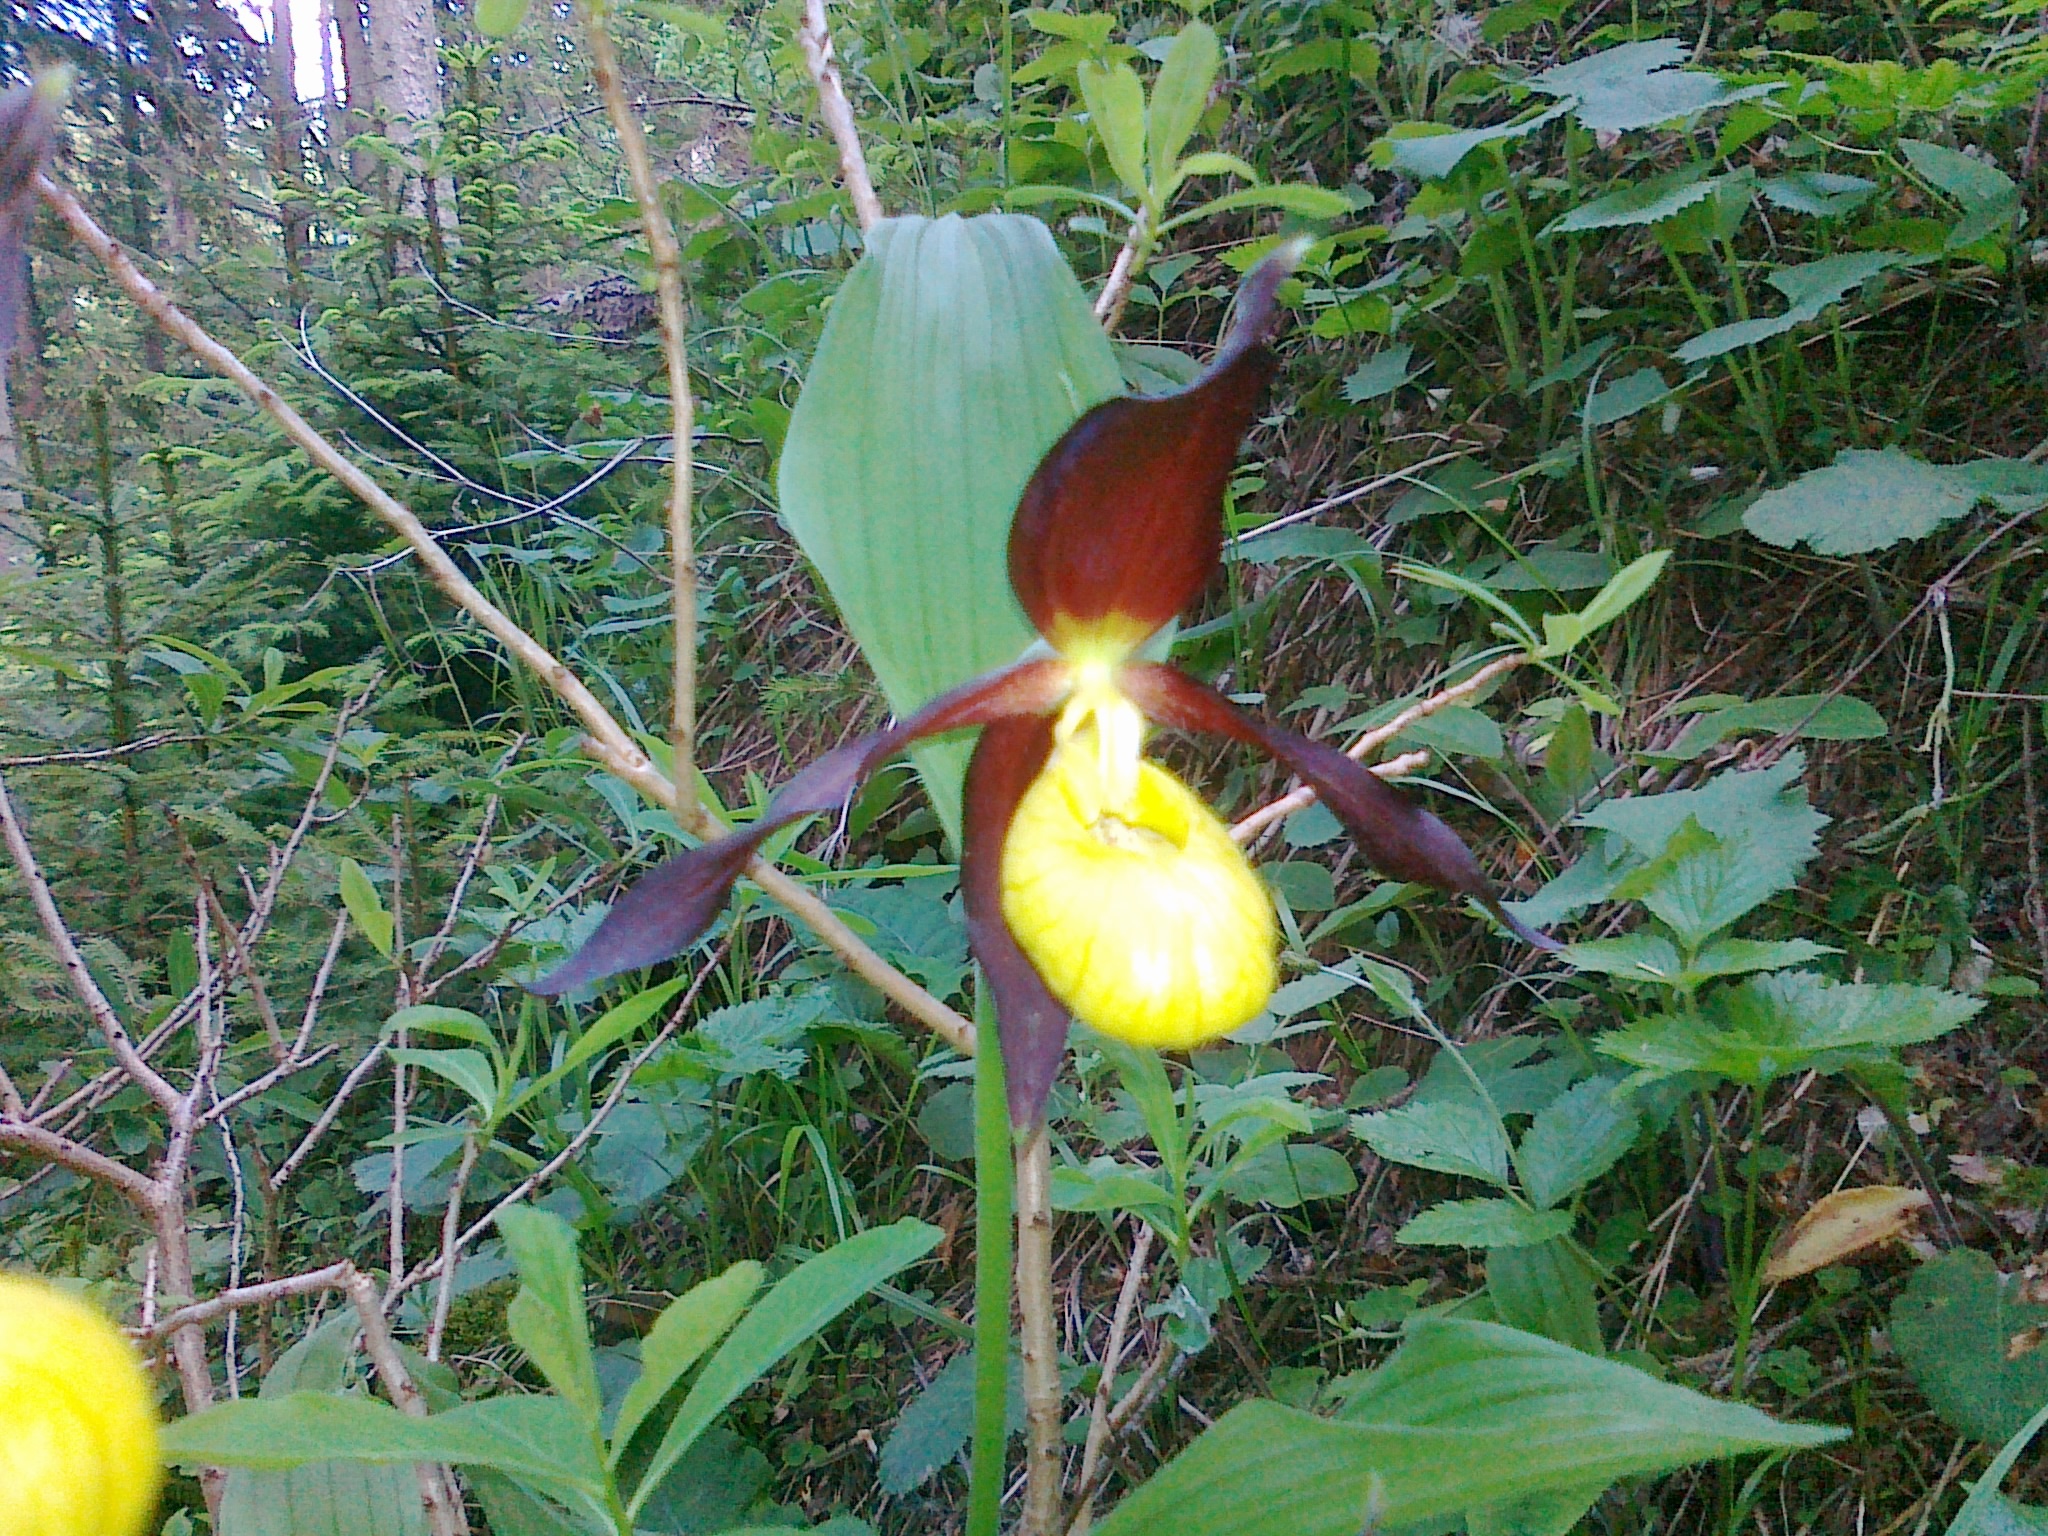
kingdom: Plantae
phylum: Tracheophyta
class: Liliopsida
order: Asparagales
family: Orchidaceae
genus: Cypripedium
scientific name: Cypripedium calceolus
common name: Lady's-slipper
